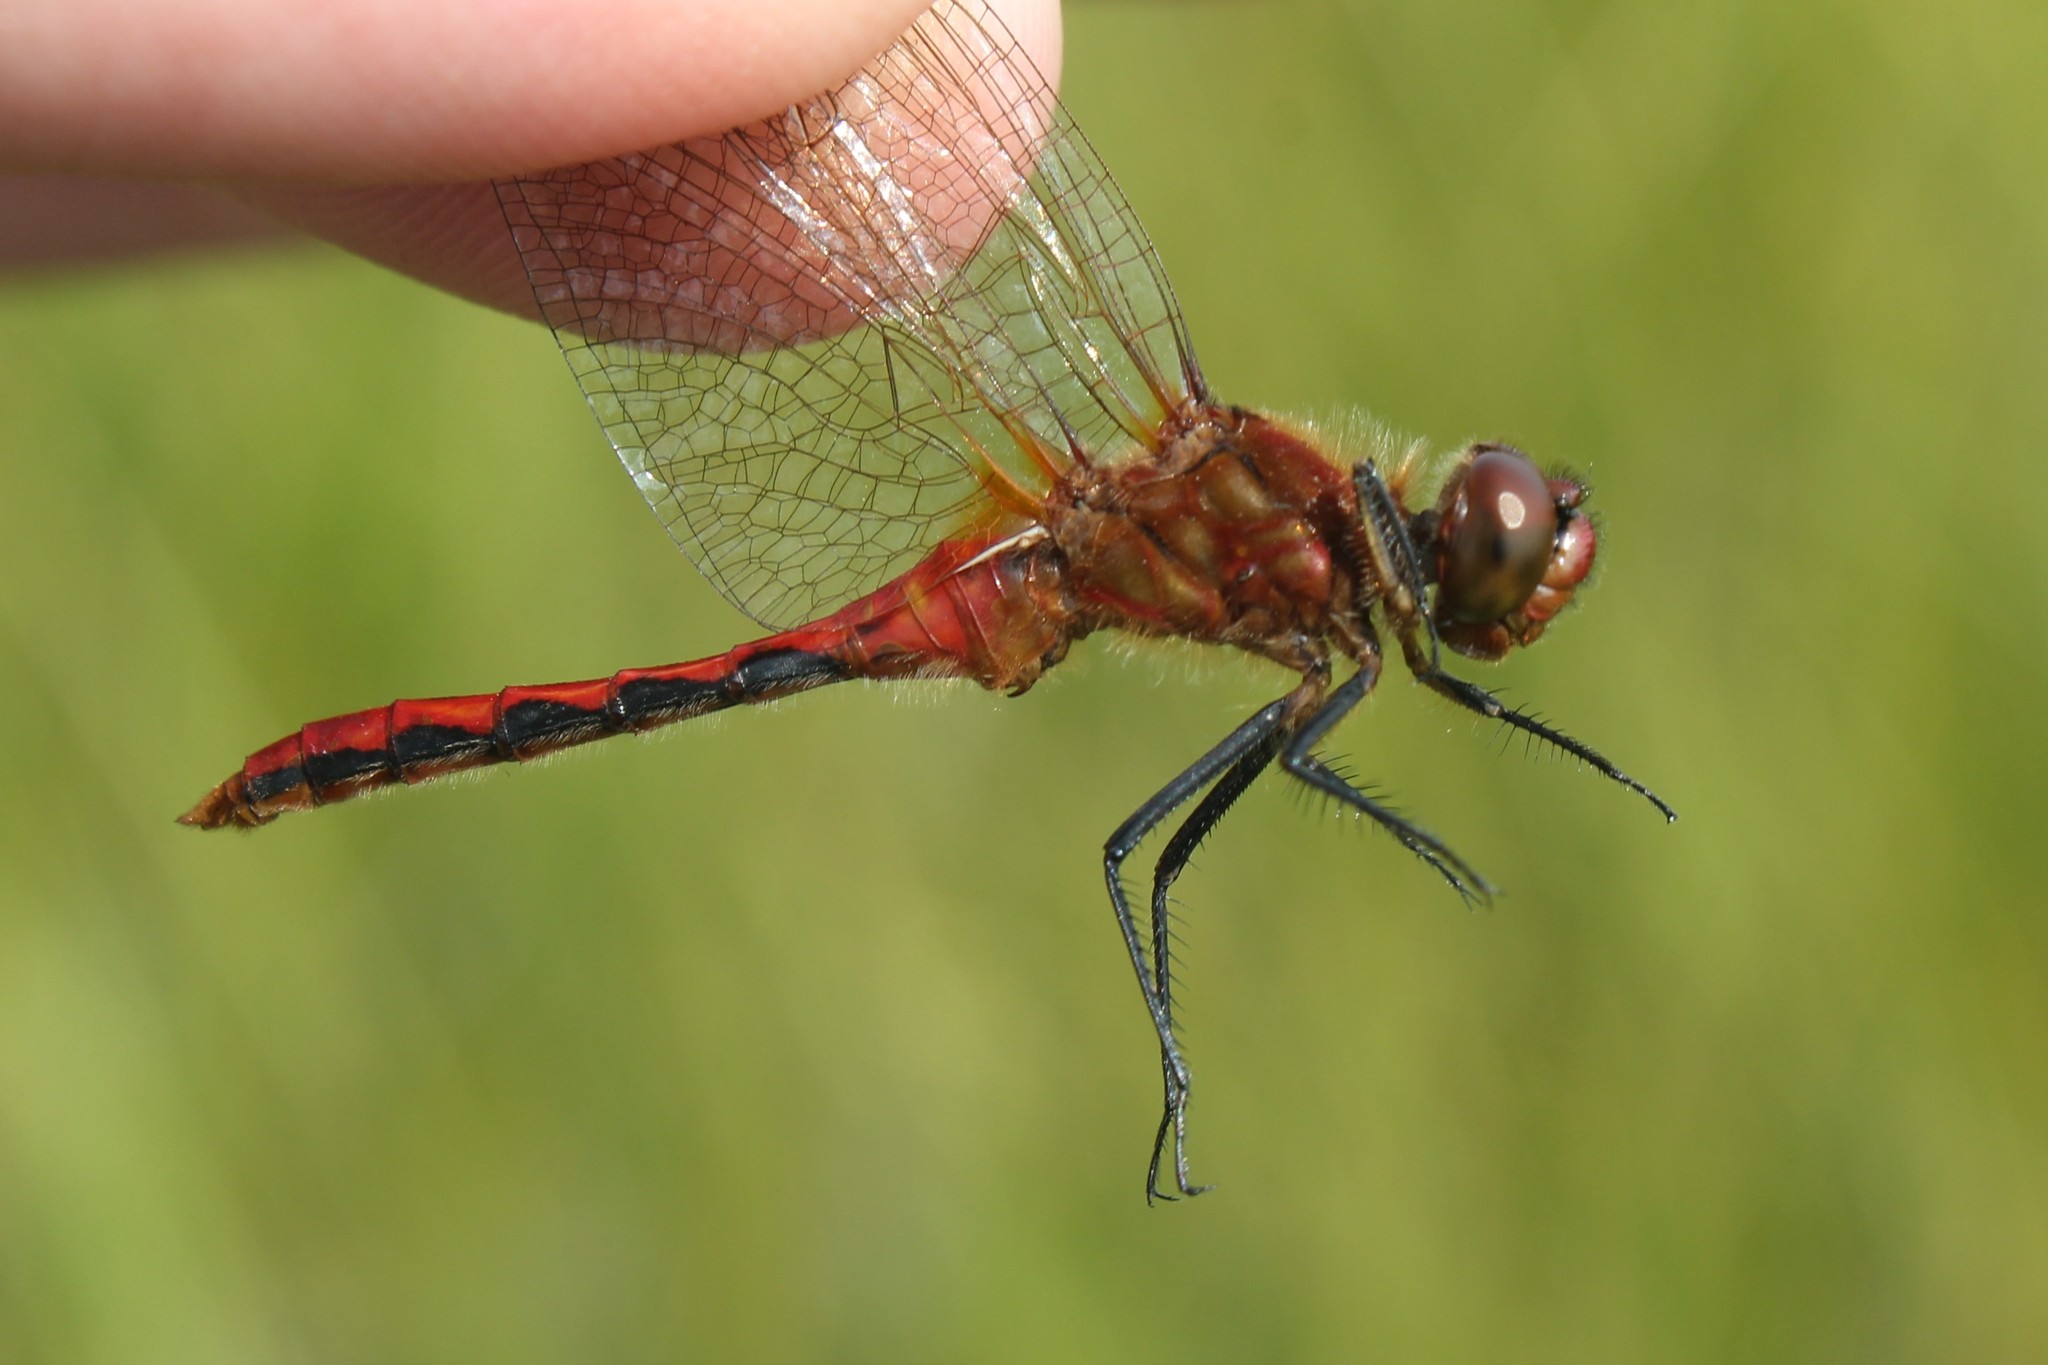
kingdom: Animalia
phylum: Arthropoda
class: Insecta
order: Odonata
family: Libellulidae
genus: Sympetrum
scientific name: Sympetrum internum
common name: Cherry-faced meadowhawk
